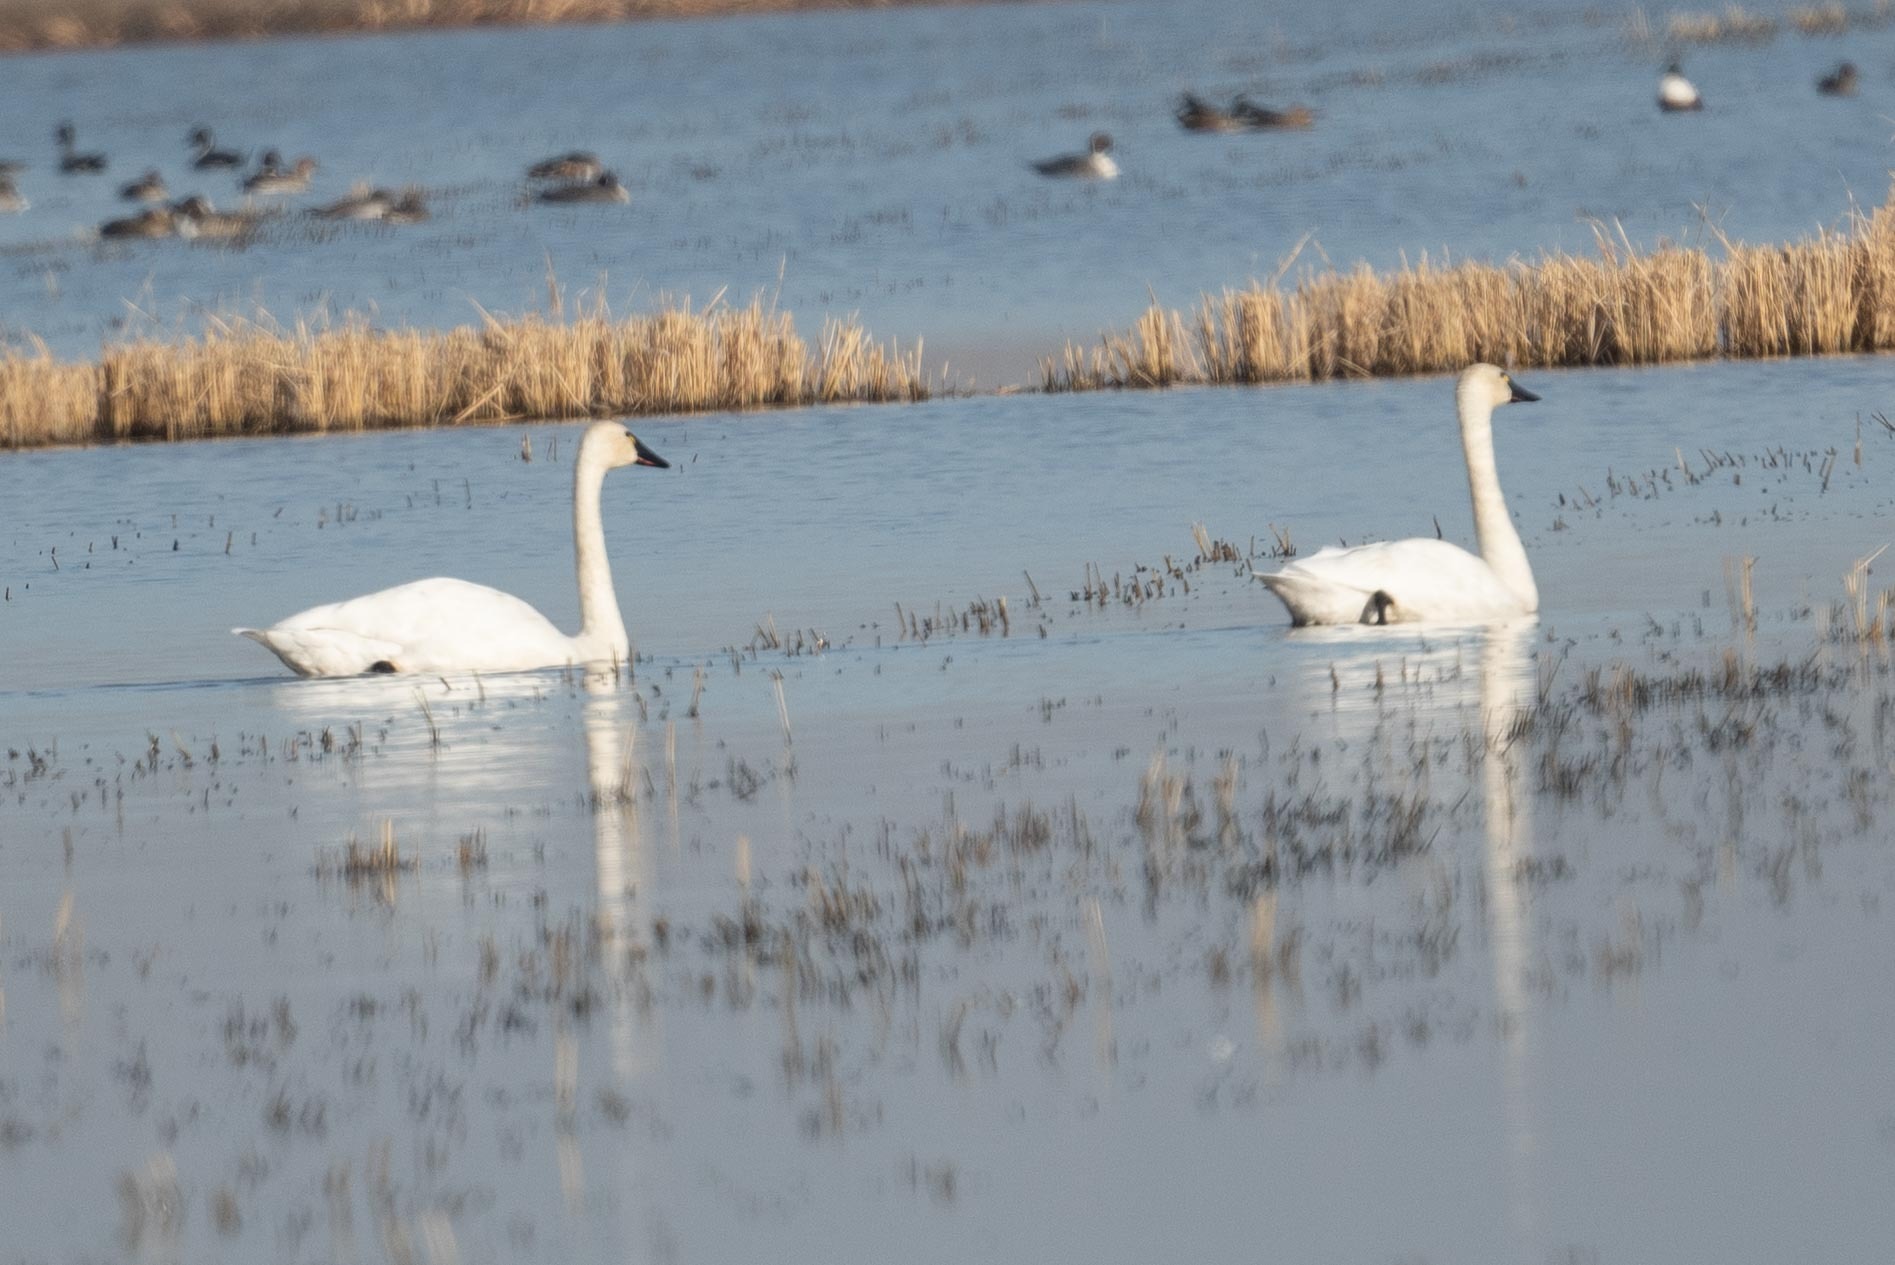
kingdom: Animalia
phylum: Chordata
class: Aves
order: Anseriformes
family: Anatidae
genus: Cygnus
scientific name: Cygnus columbianus
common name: Tundra swan
